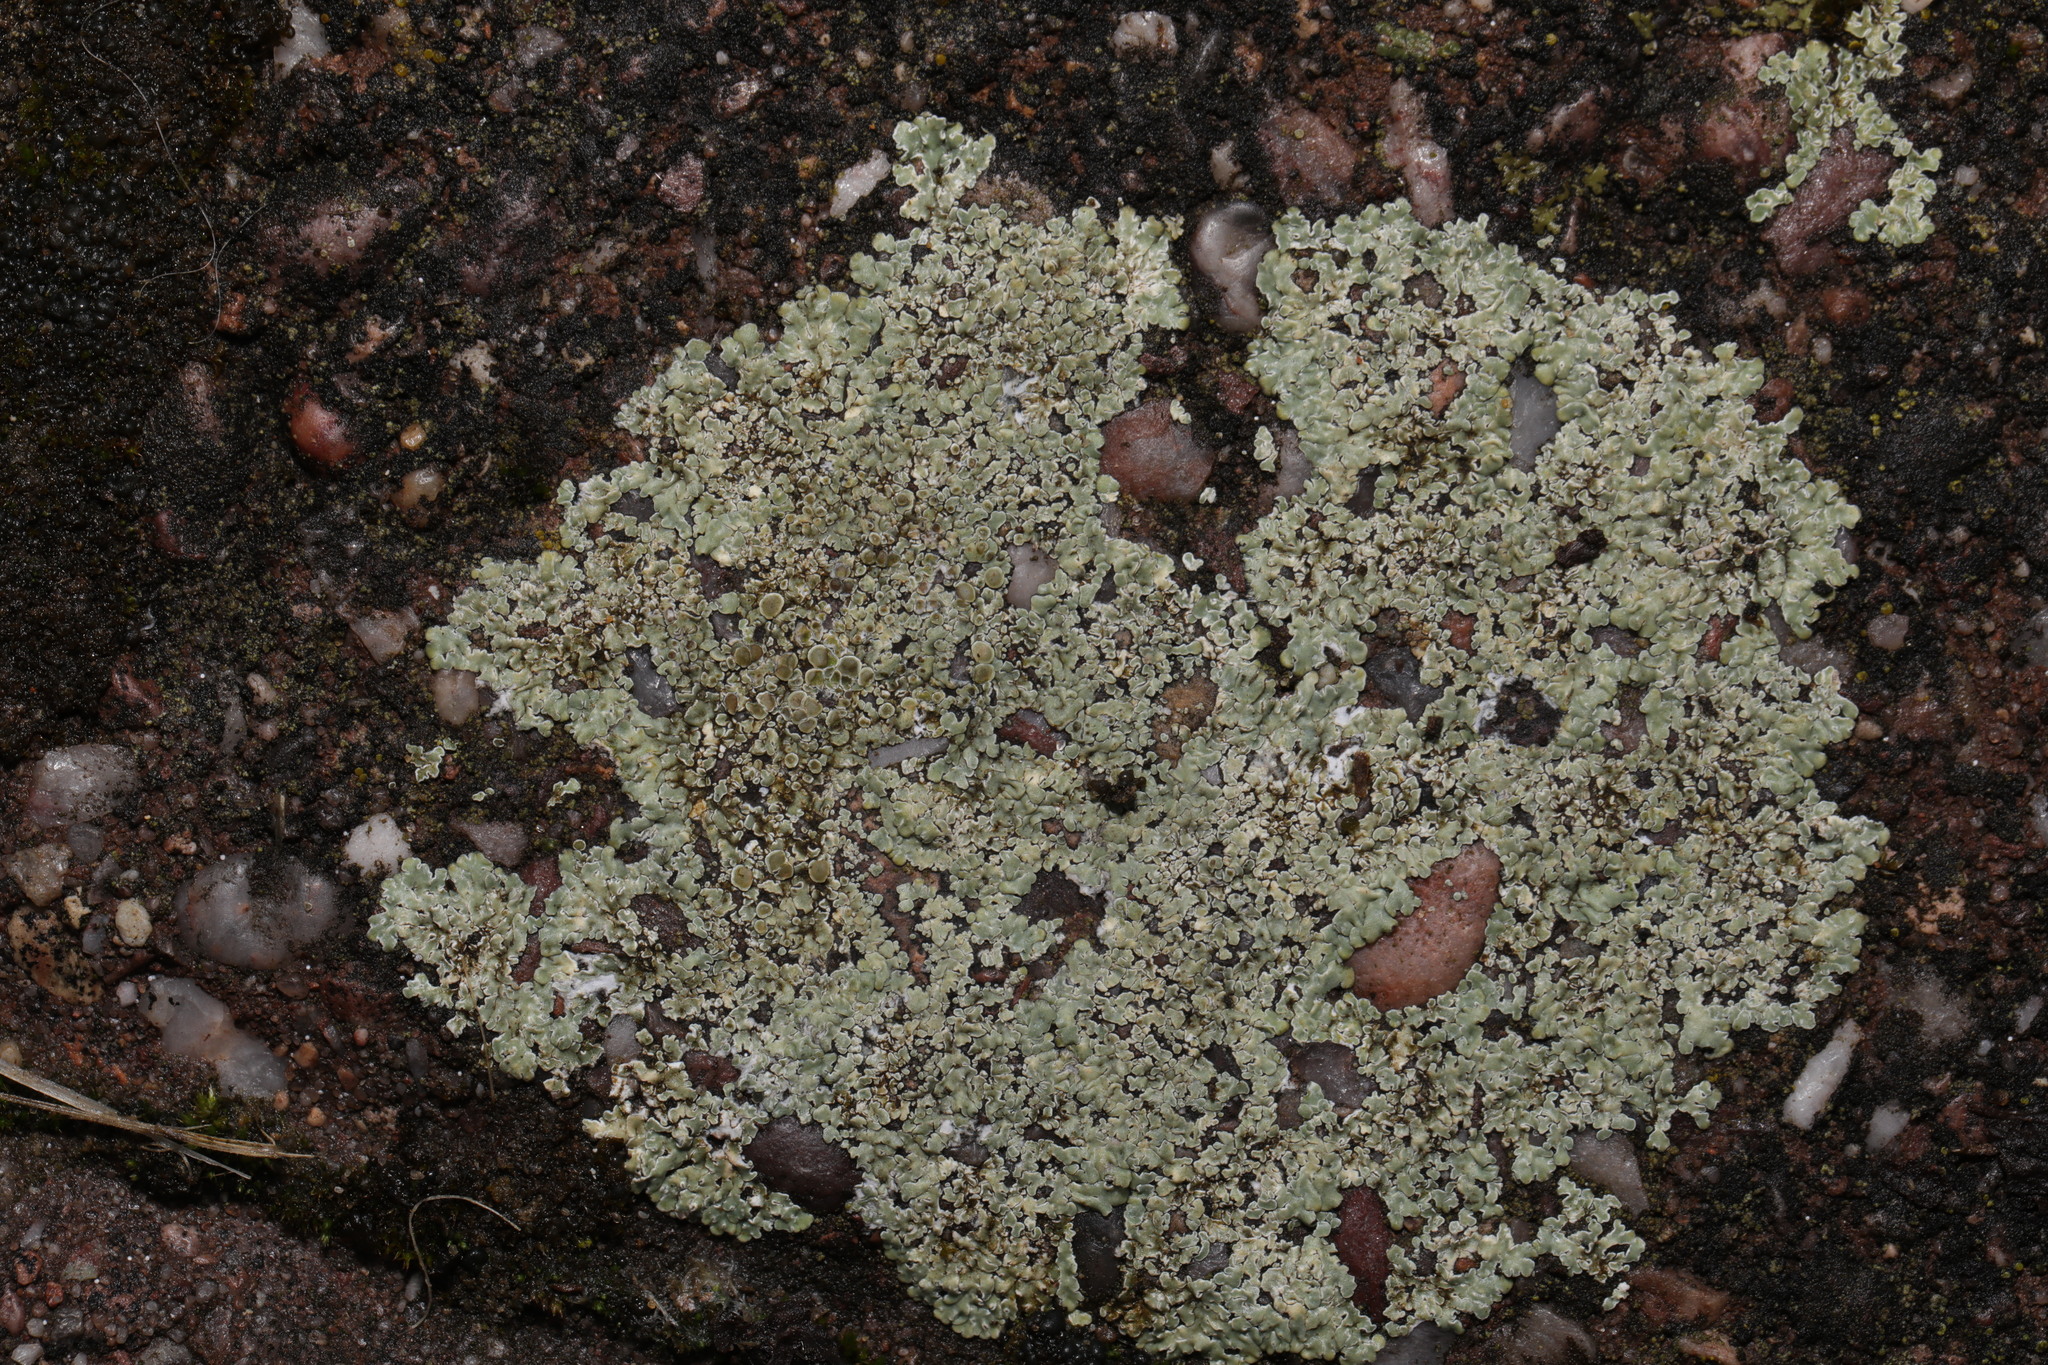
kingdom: Fungi
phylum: Ascomycota
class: Lecanoromycetes
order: Lecanorales
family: Lecanoraceae
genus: Protoparmeliopsis
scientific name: Protoparmeliopsis muralis
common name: Stonewall rim lichen
